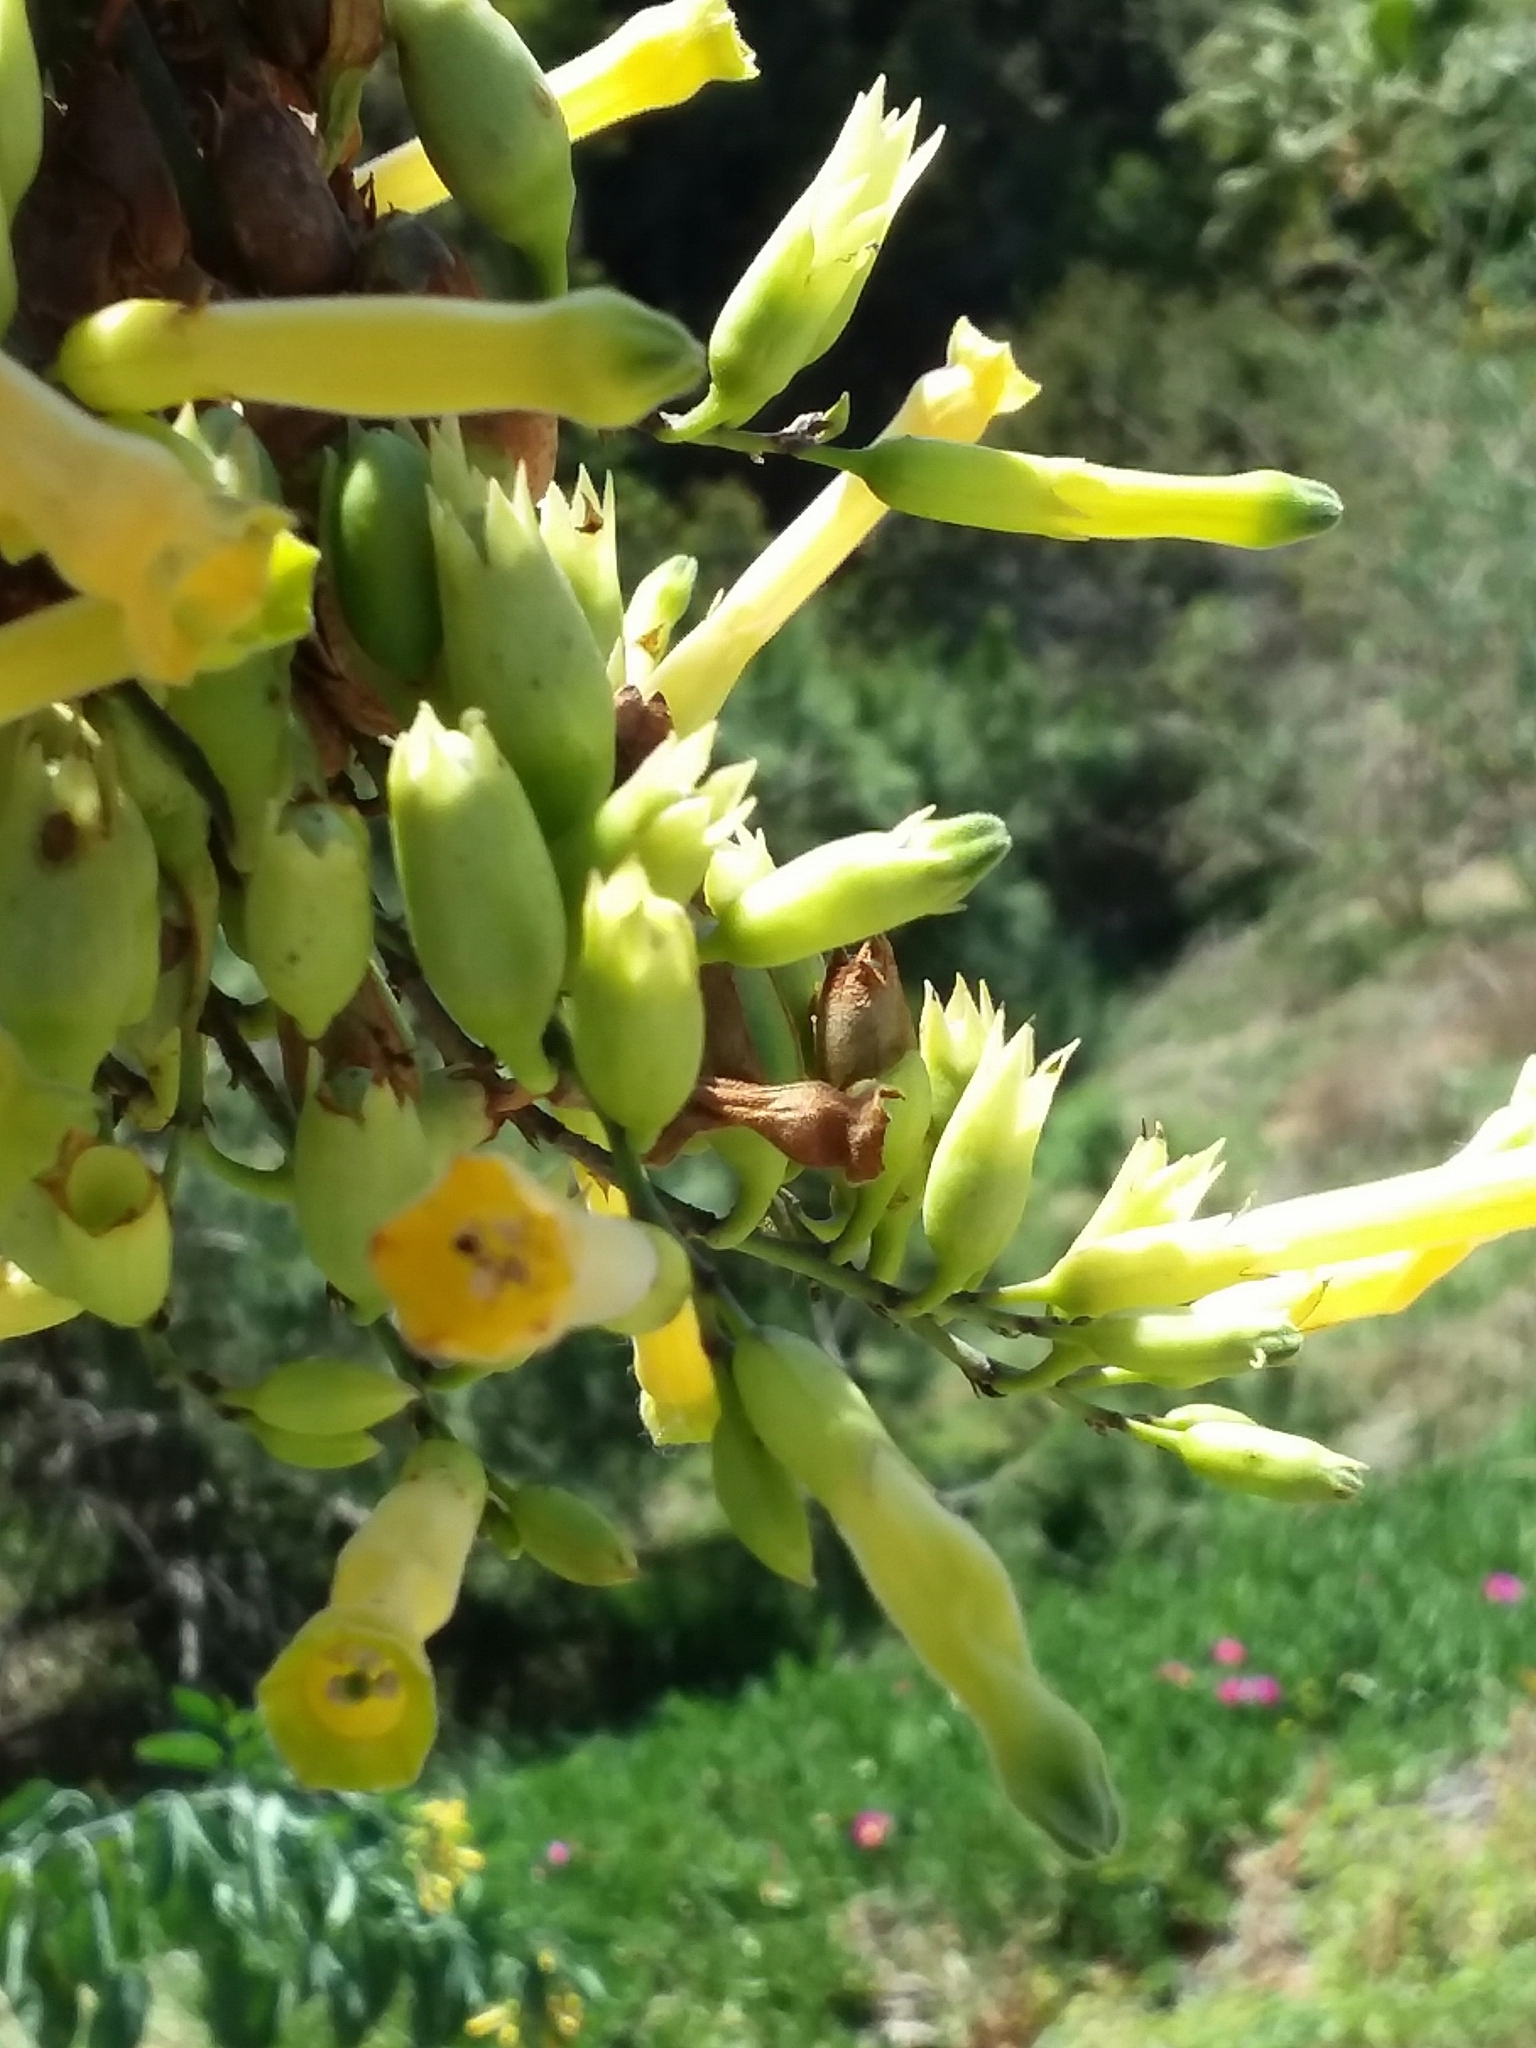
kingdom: Plantae
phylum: Tracheophyta
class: Magnoliopsida
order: Solanales
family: Solanaceae
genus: Nicotiana
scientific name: Nicotiana glauca
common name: Tree tobacco
